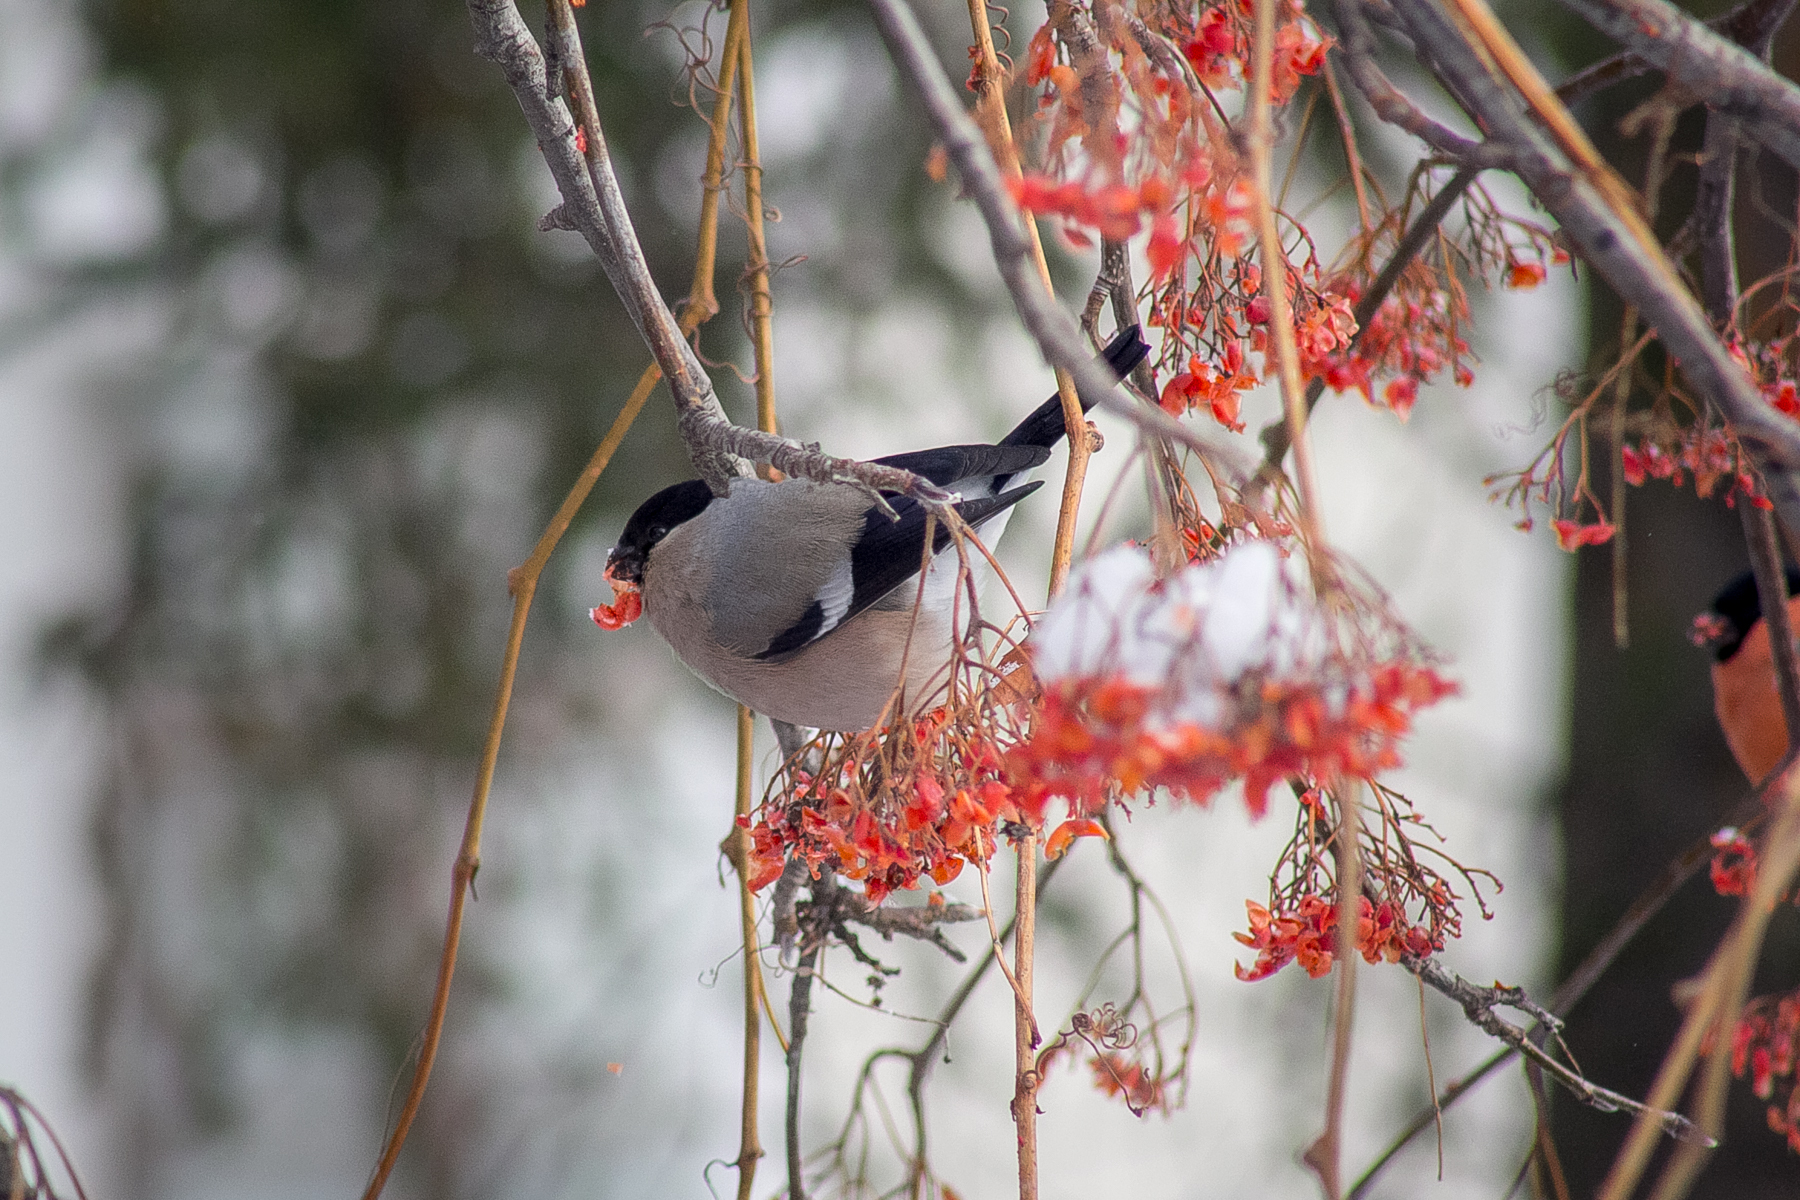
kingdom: Animalia
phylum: Chordata
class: Aves
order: Passeriformes
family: Fringillidae
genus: Pyrrhula
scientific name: Pyrrhula pyrrhula
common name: Eurasian bullfinch
